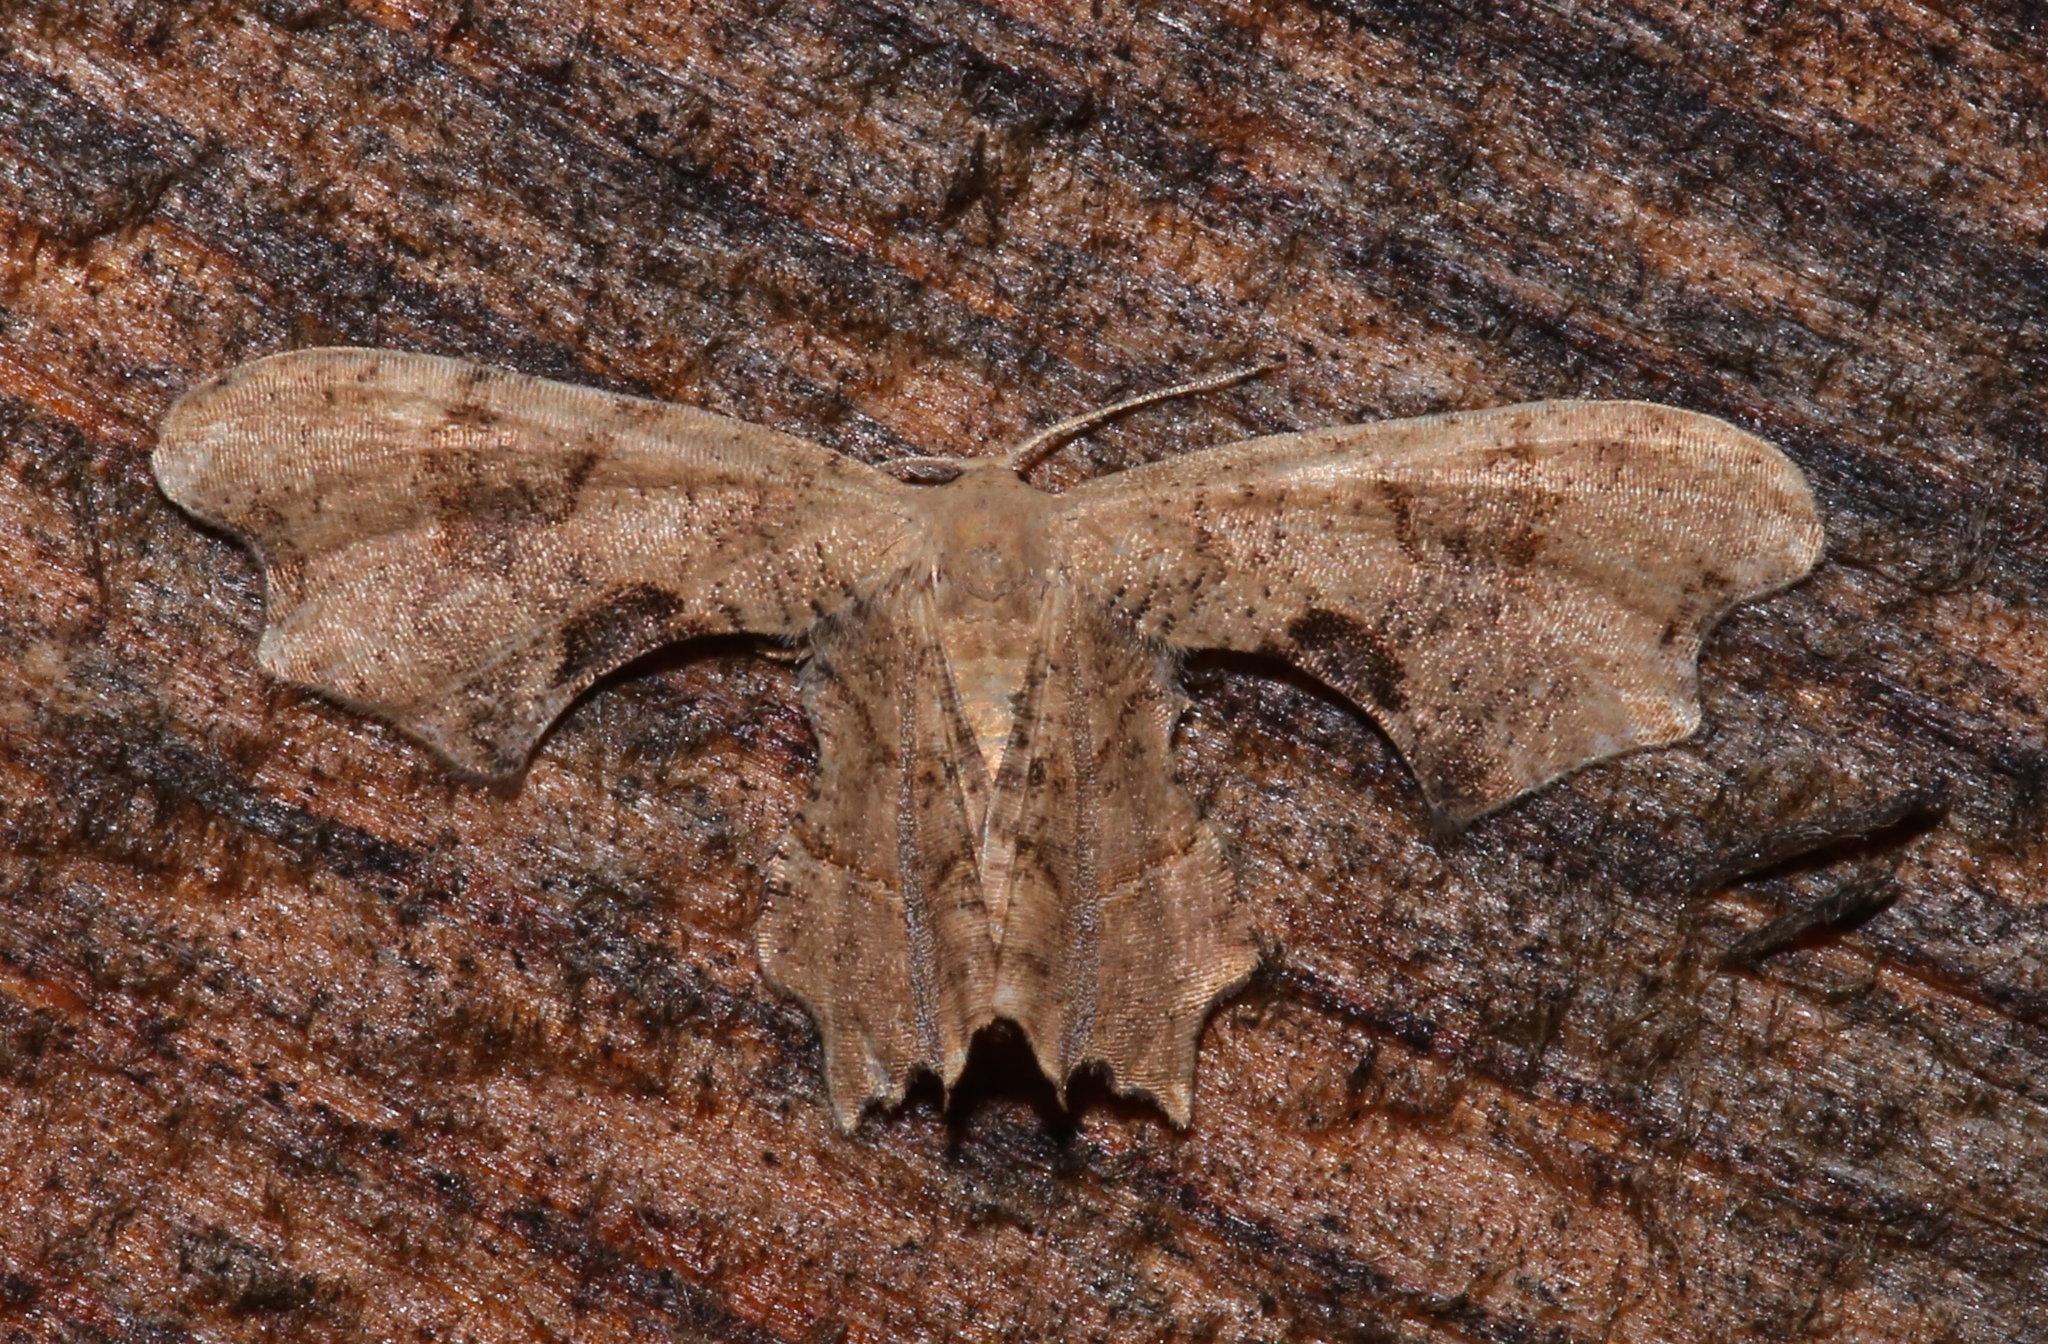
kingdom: Animalia
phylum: Arthropoda
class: Insecta
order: Lepidoptera
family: Uraniidae
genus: Epiplema
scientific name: Epiplema Calledapteryx dryopterata
